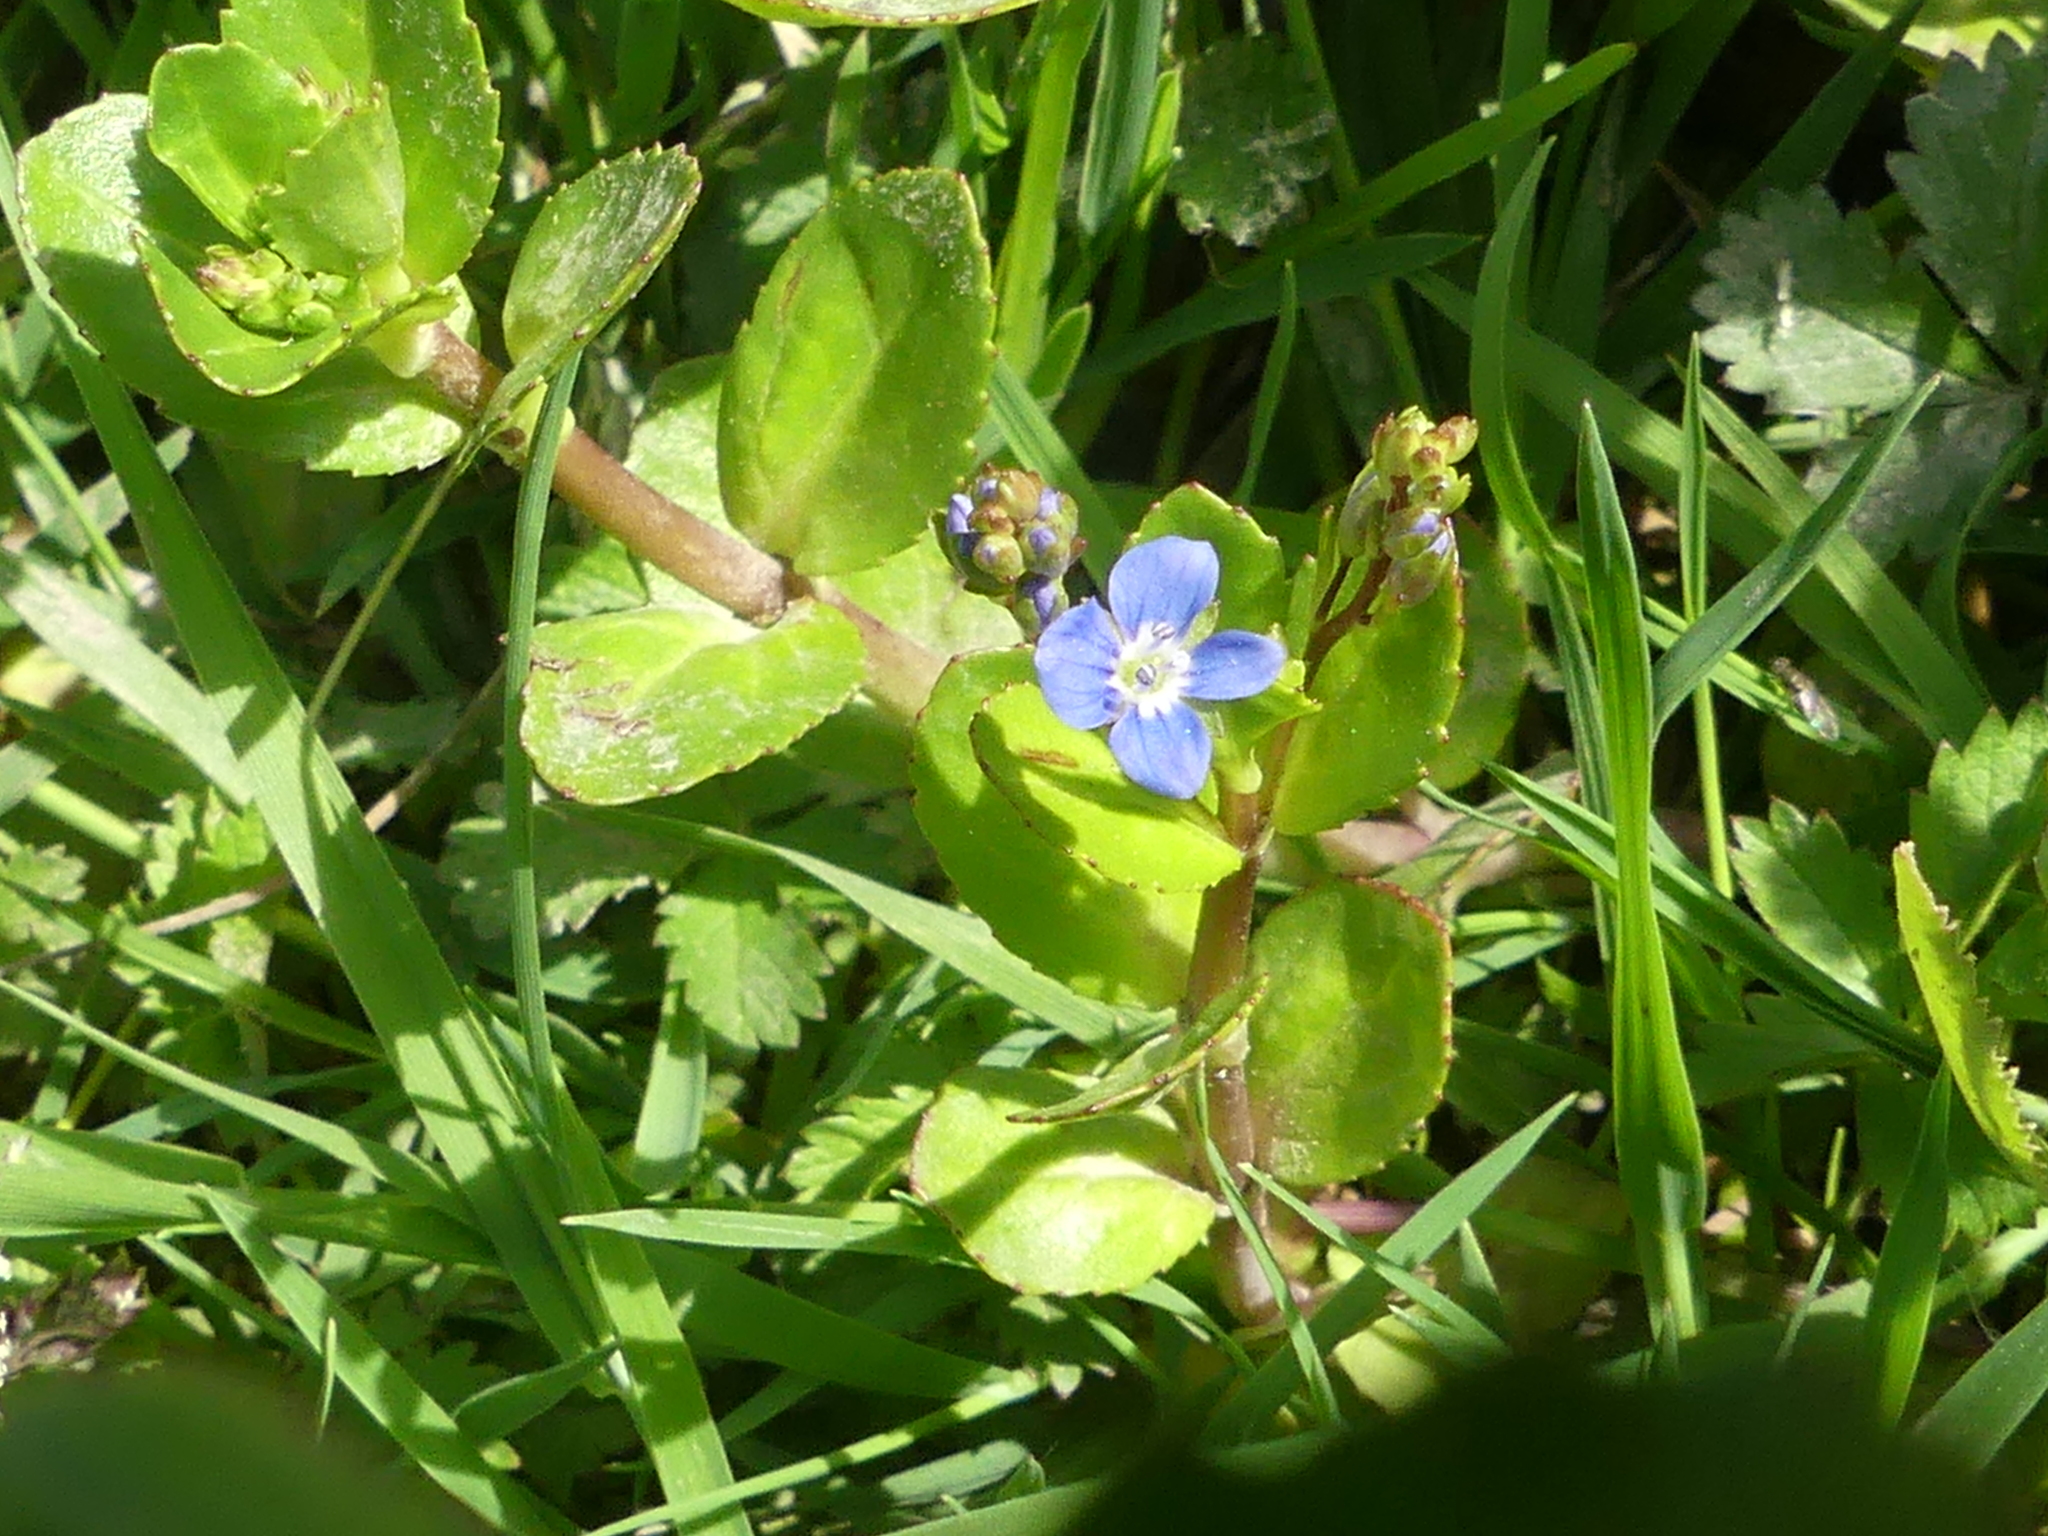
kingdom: Plantae
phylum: Tracheophyta
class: Magnoliopsida
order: Lamiales
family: Plantaginaceae
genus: Veronica
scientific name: Veronica beccabunga
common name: Brooklime
